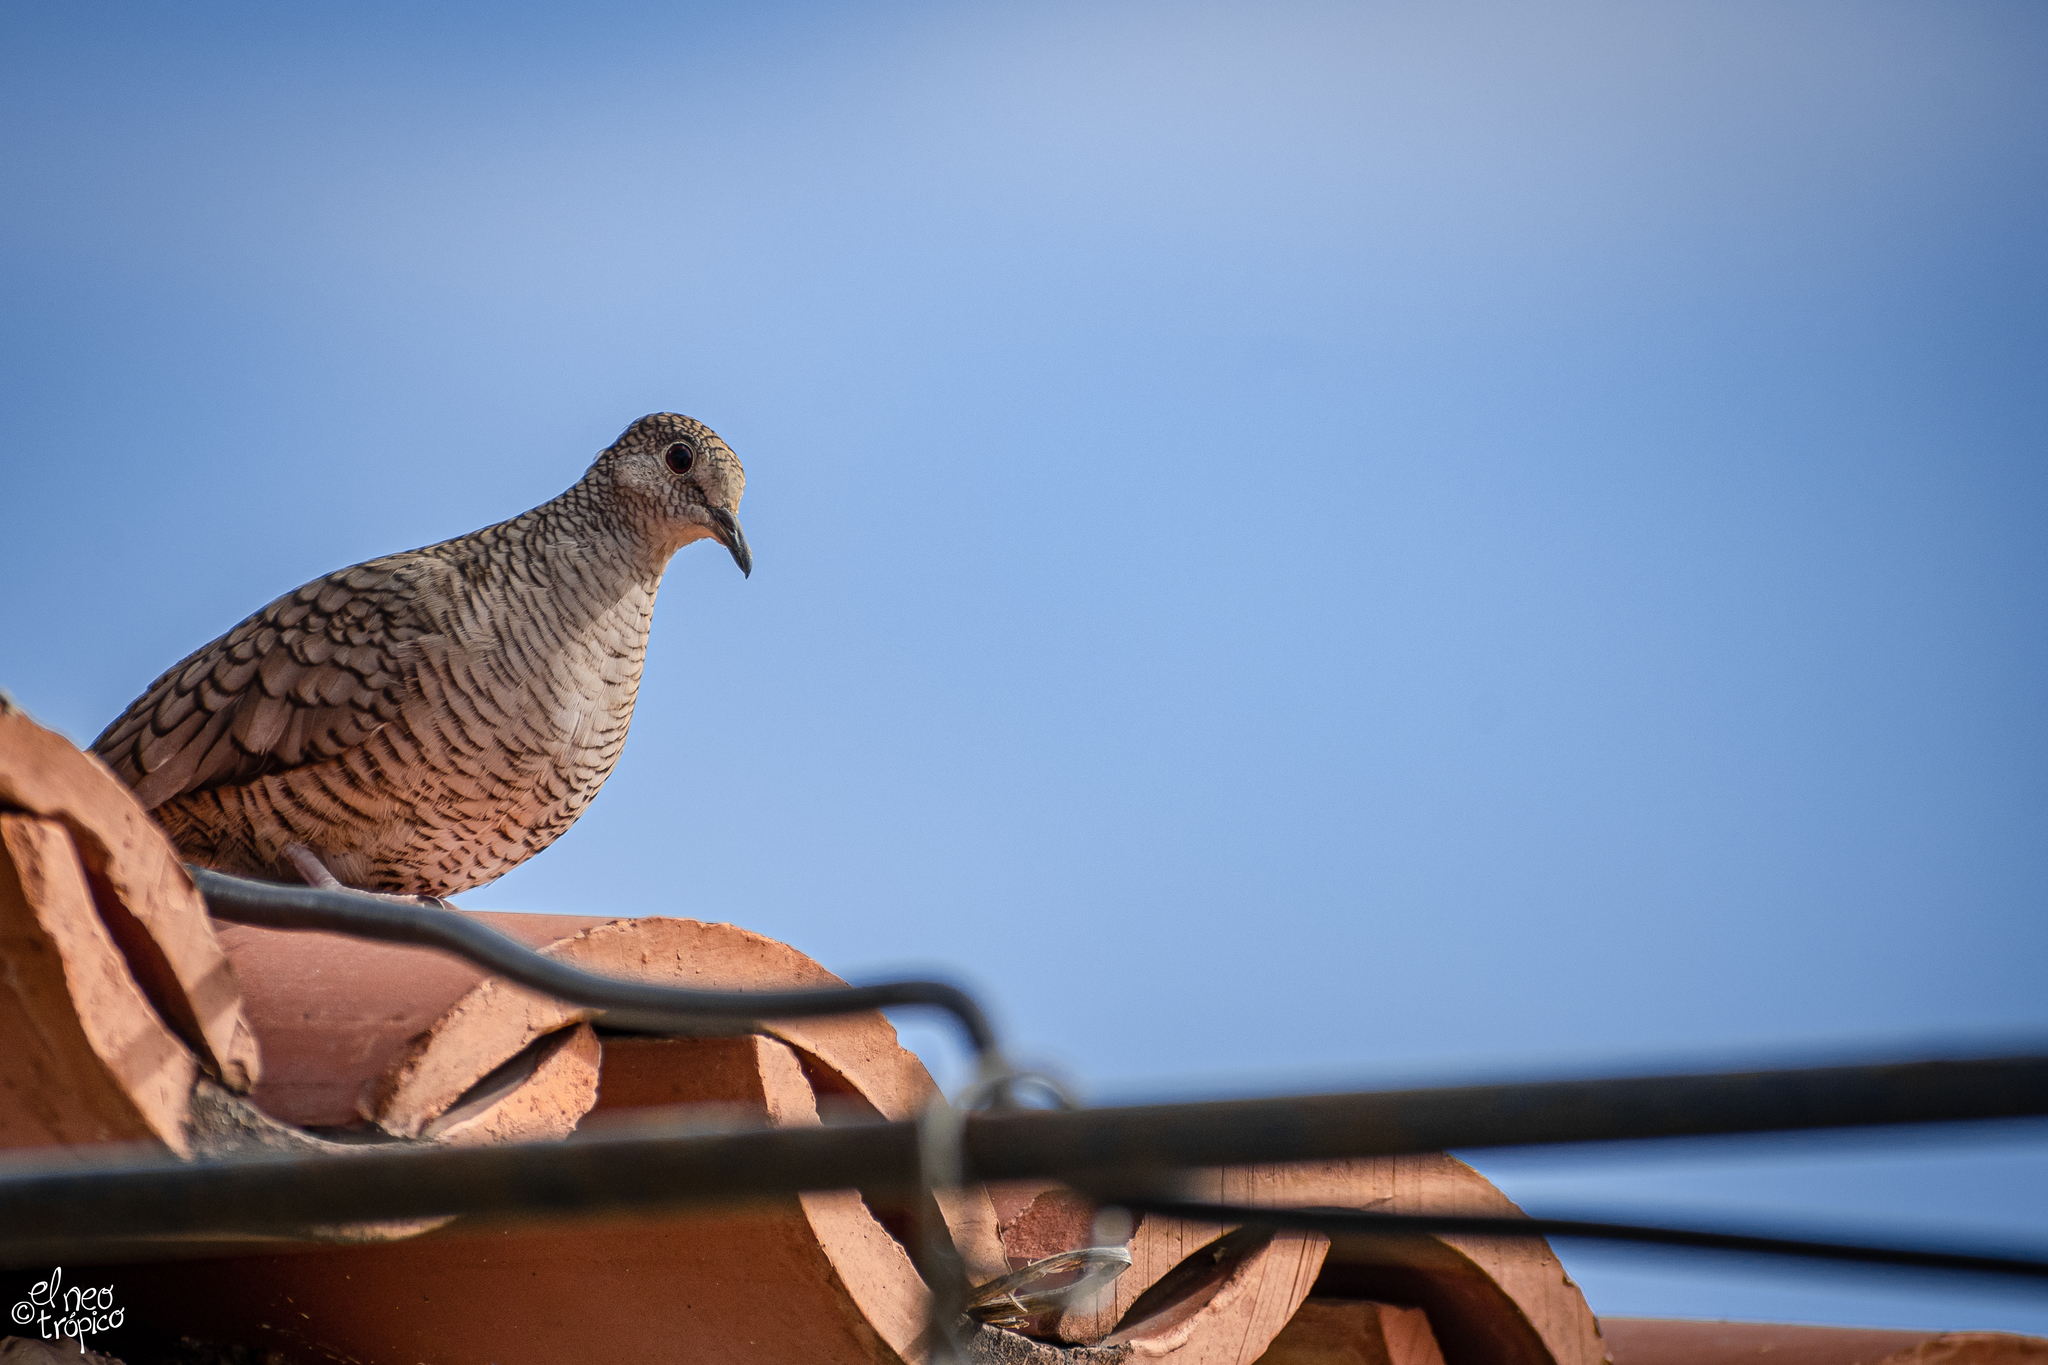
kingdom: Animalia
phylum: Chordata
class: Aves
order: Columbiformes
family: Columbidae
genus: Columbina
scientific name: Columbina inca
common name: Inca dove
